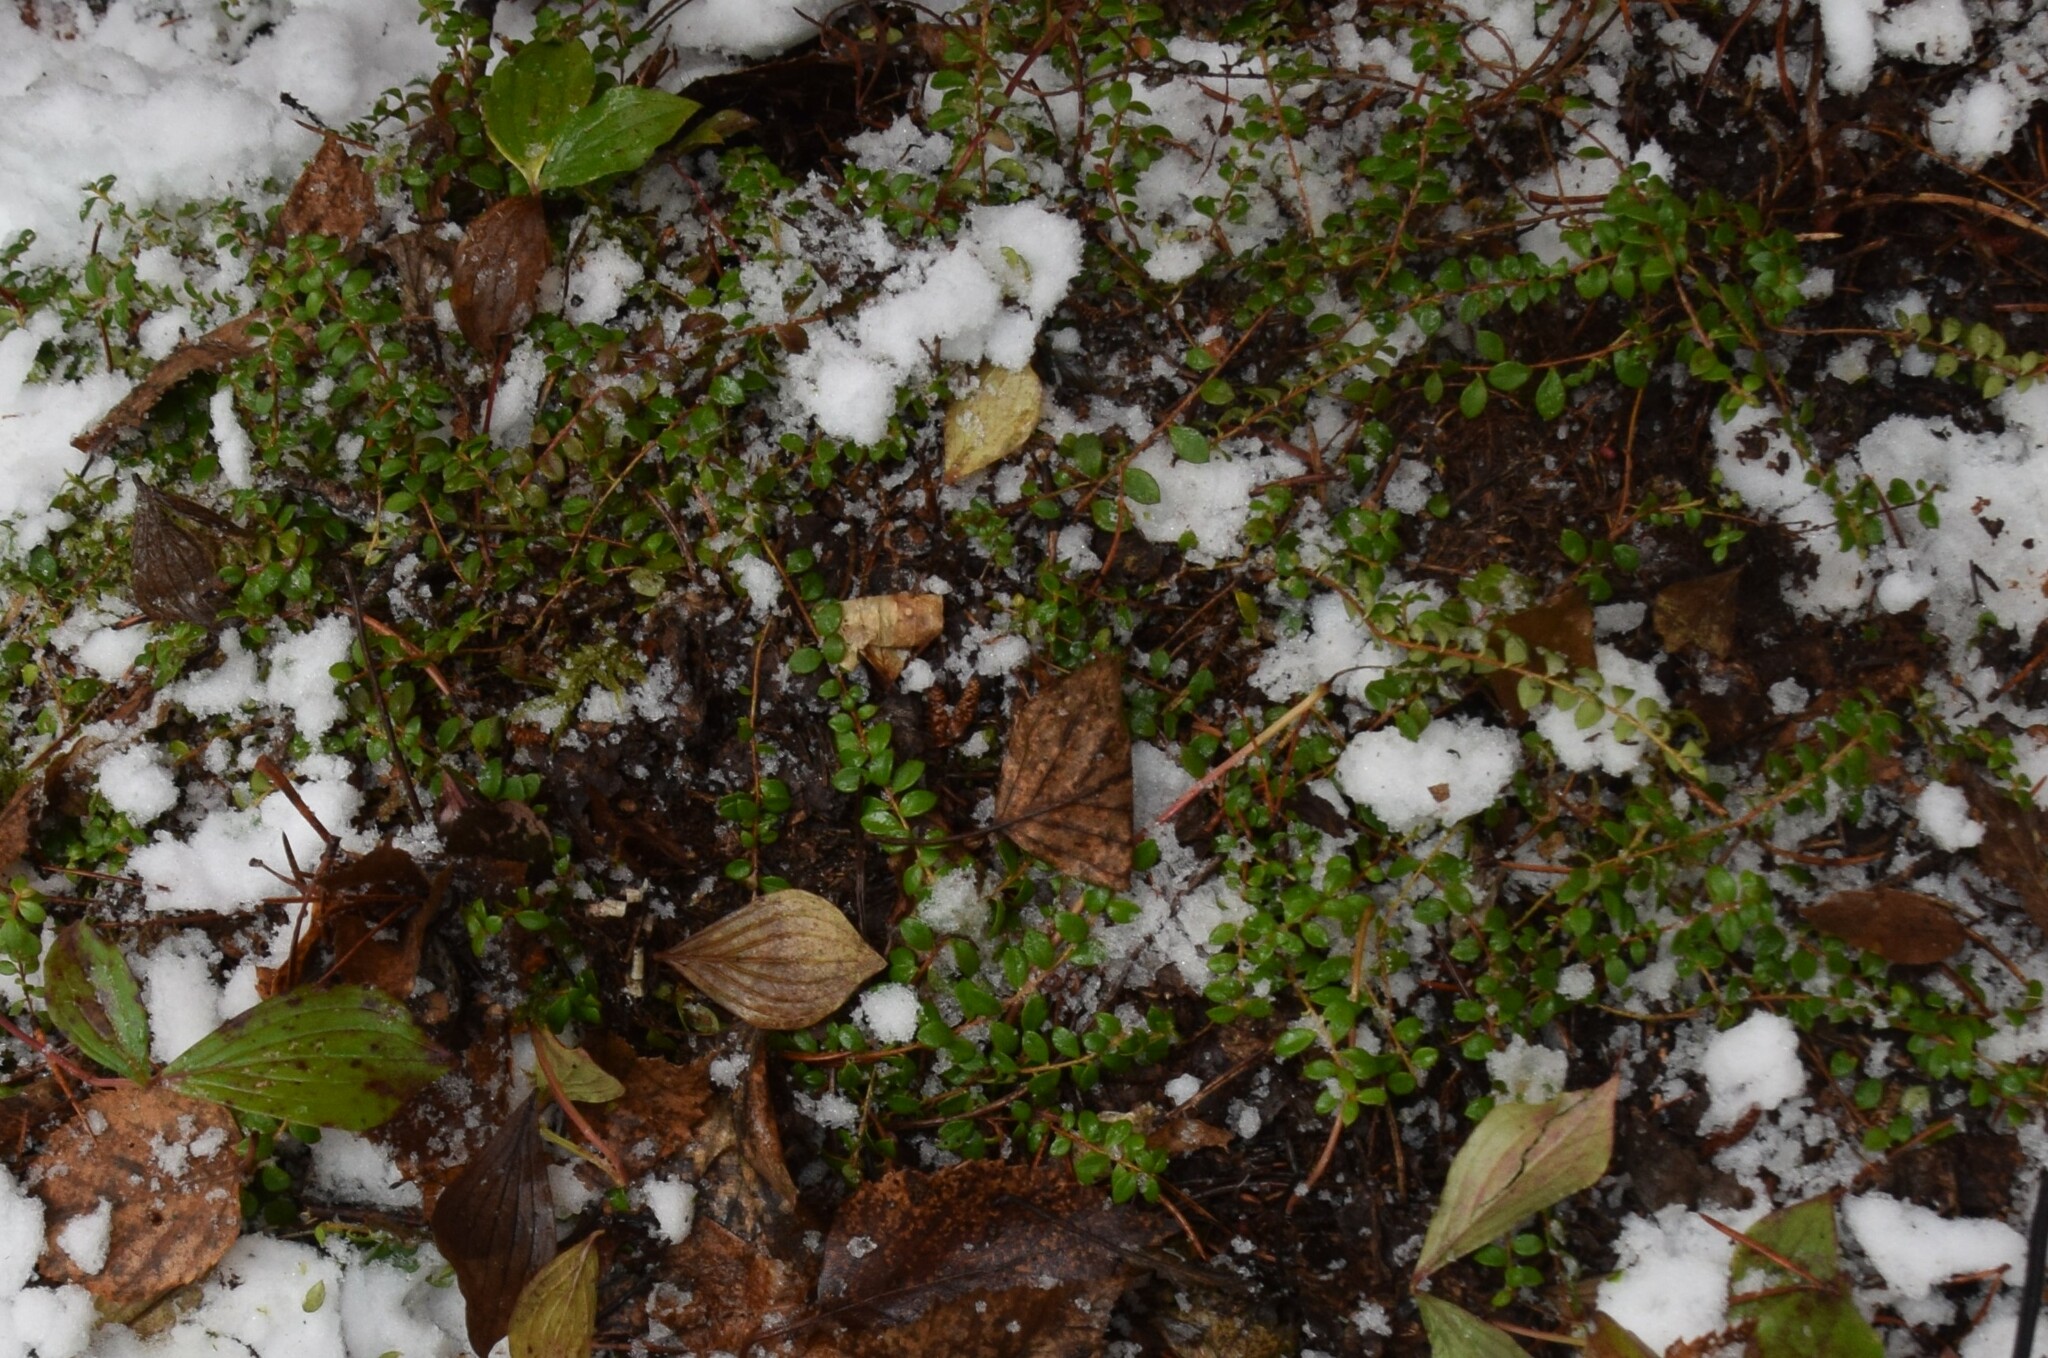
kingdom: Plantae
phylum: Tracheophyta
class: Magnoliopsida
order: Ericales
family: Ericaceae
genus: Gaultheria
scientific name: Gaultheria hispidula
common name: Cancer wintergreen
